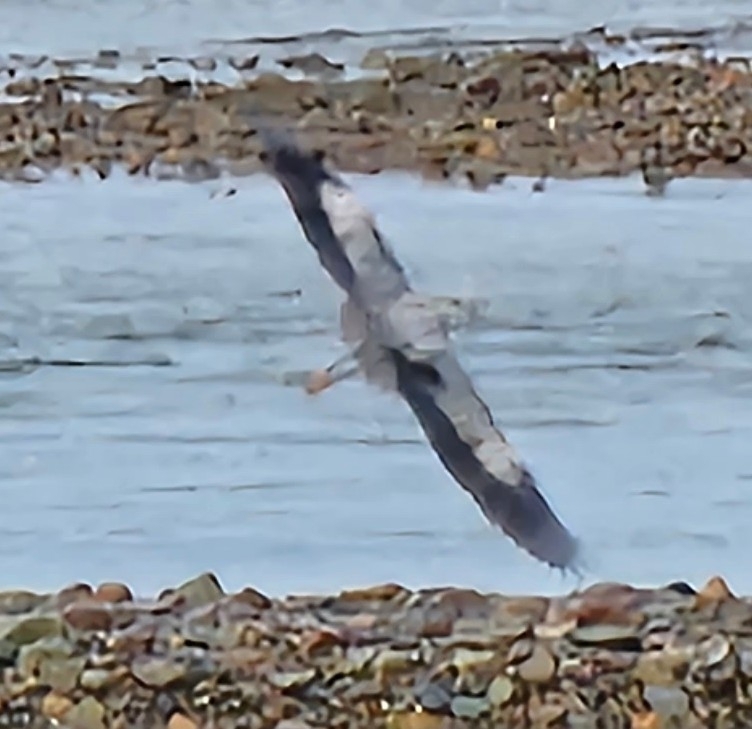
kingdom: Animalia
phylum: Chordata
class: Aves
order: Pelecaniformes
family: Ardeidae
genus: Ardea
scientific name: Ardea herodias
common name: Great blue heron
